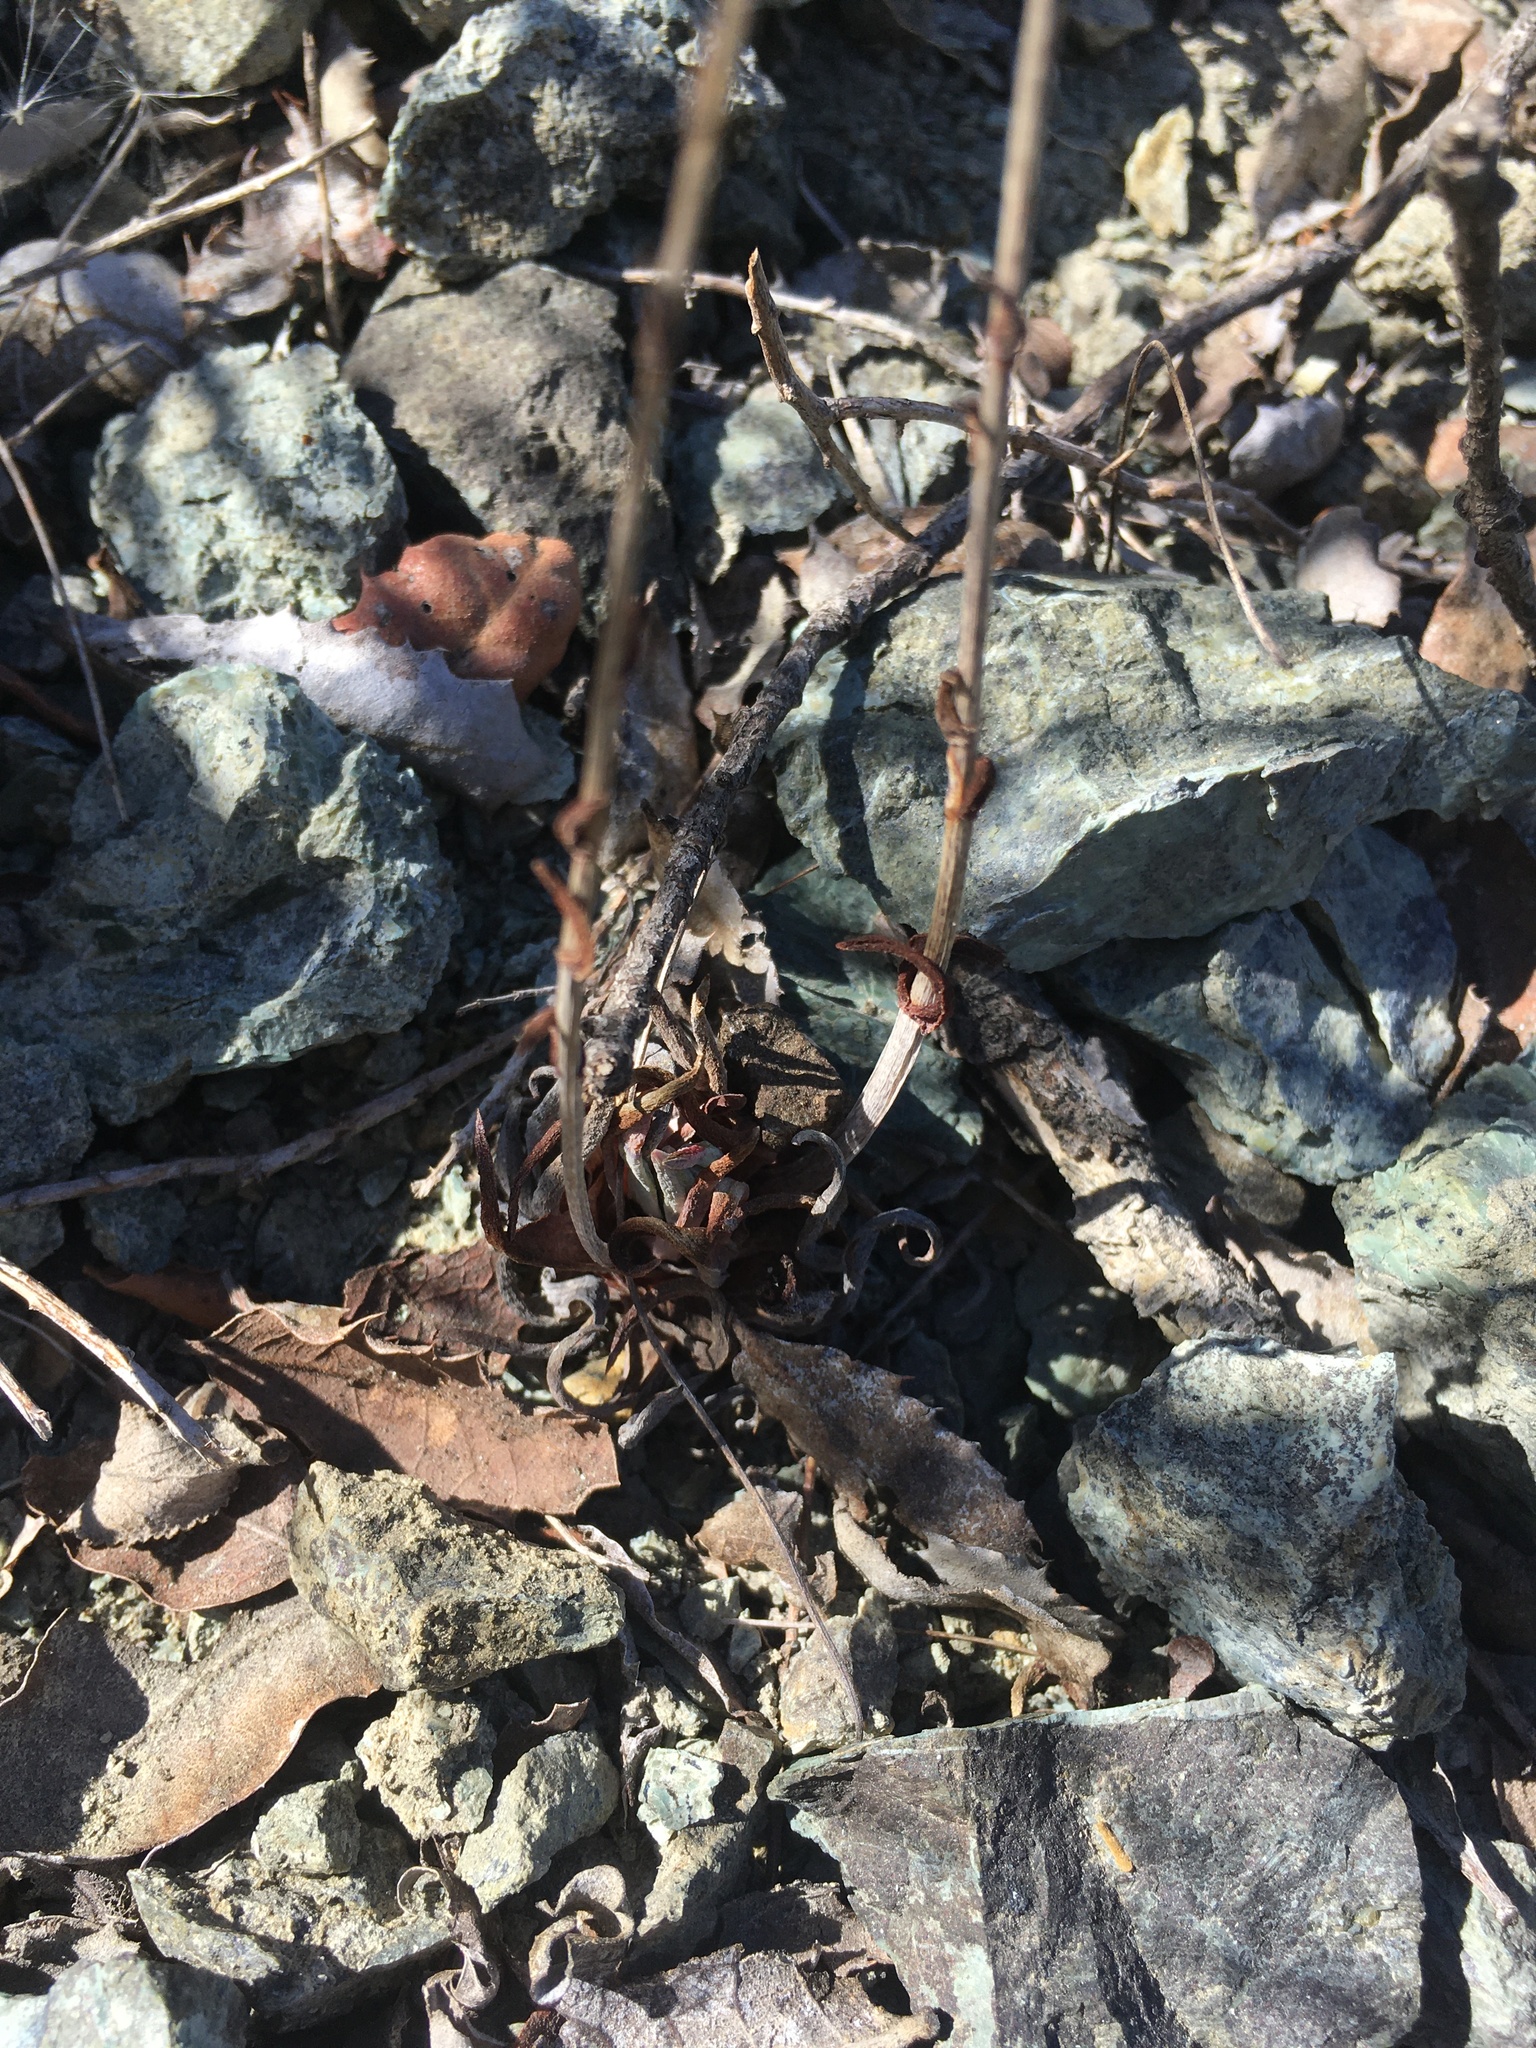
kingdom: Plantae
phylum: Tracheophyta
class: Magnoliopsida
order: Saxifragales
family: Crassulaceae
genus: Dudleya
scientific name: Dudleya abramsii
